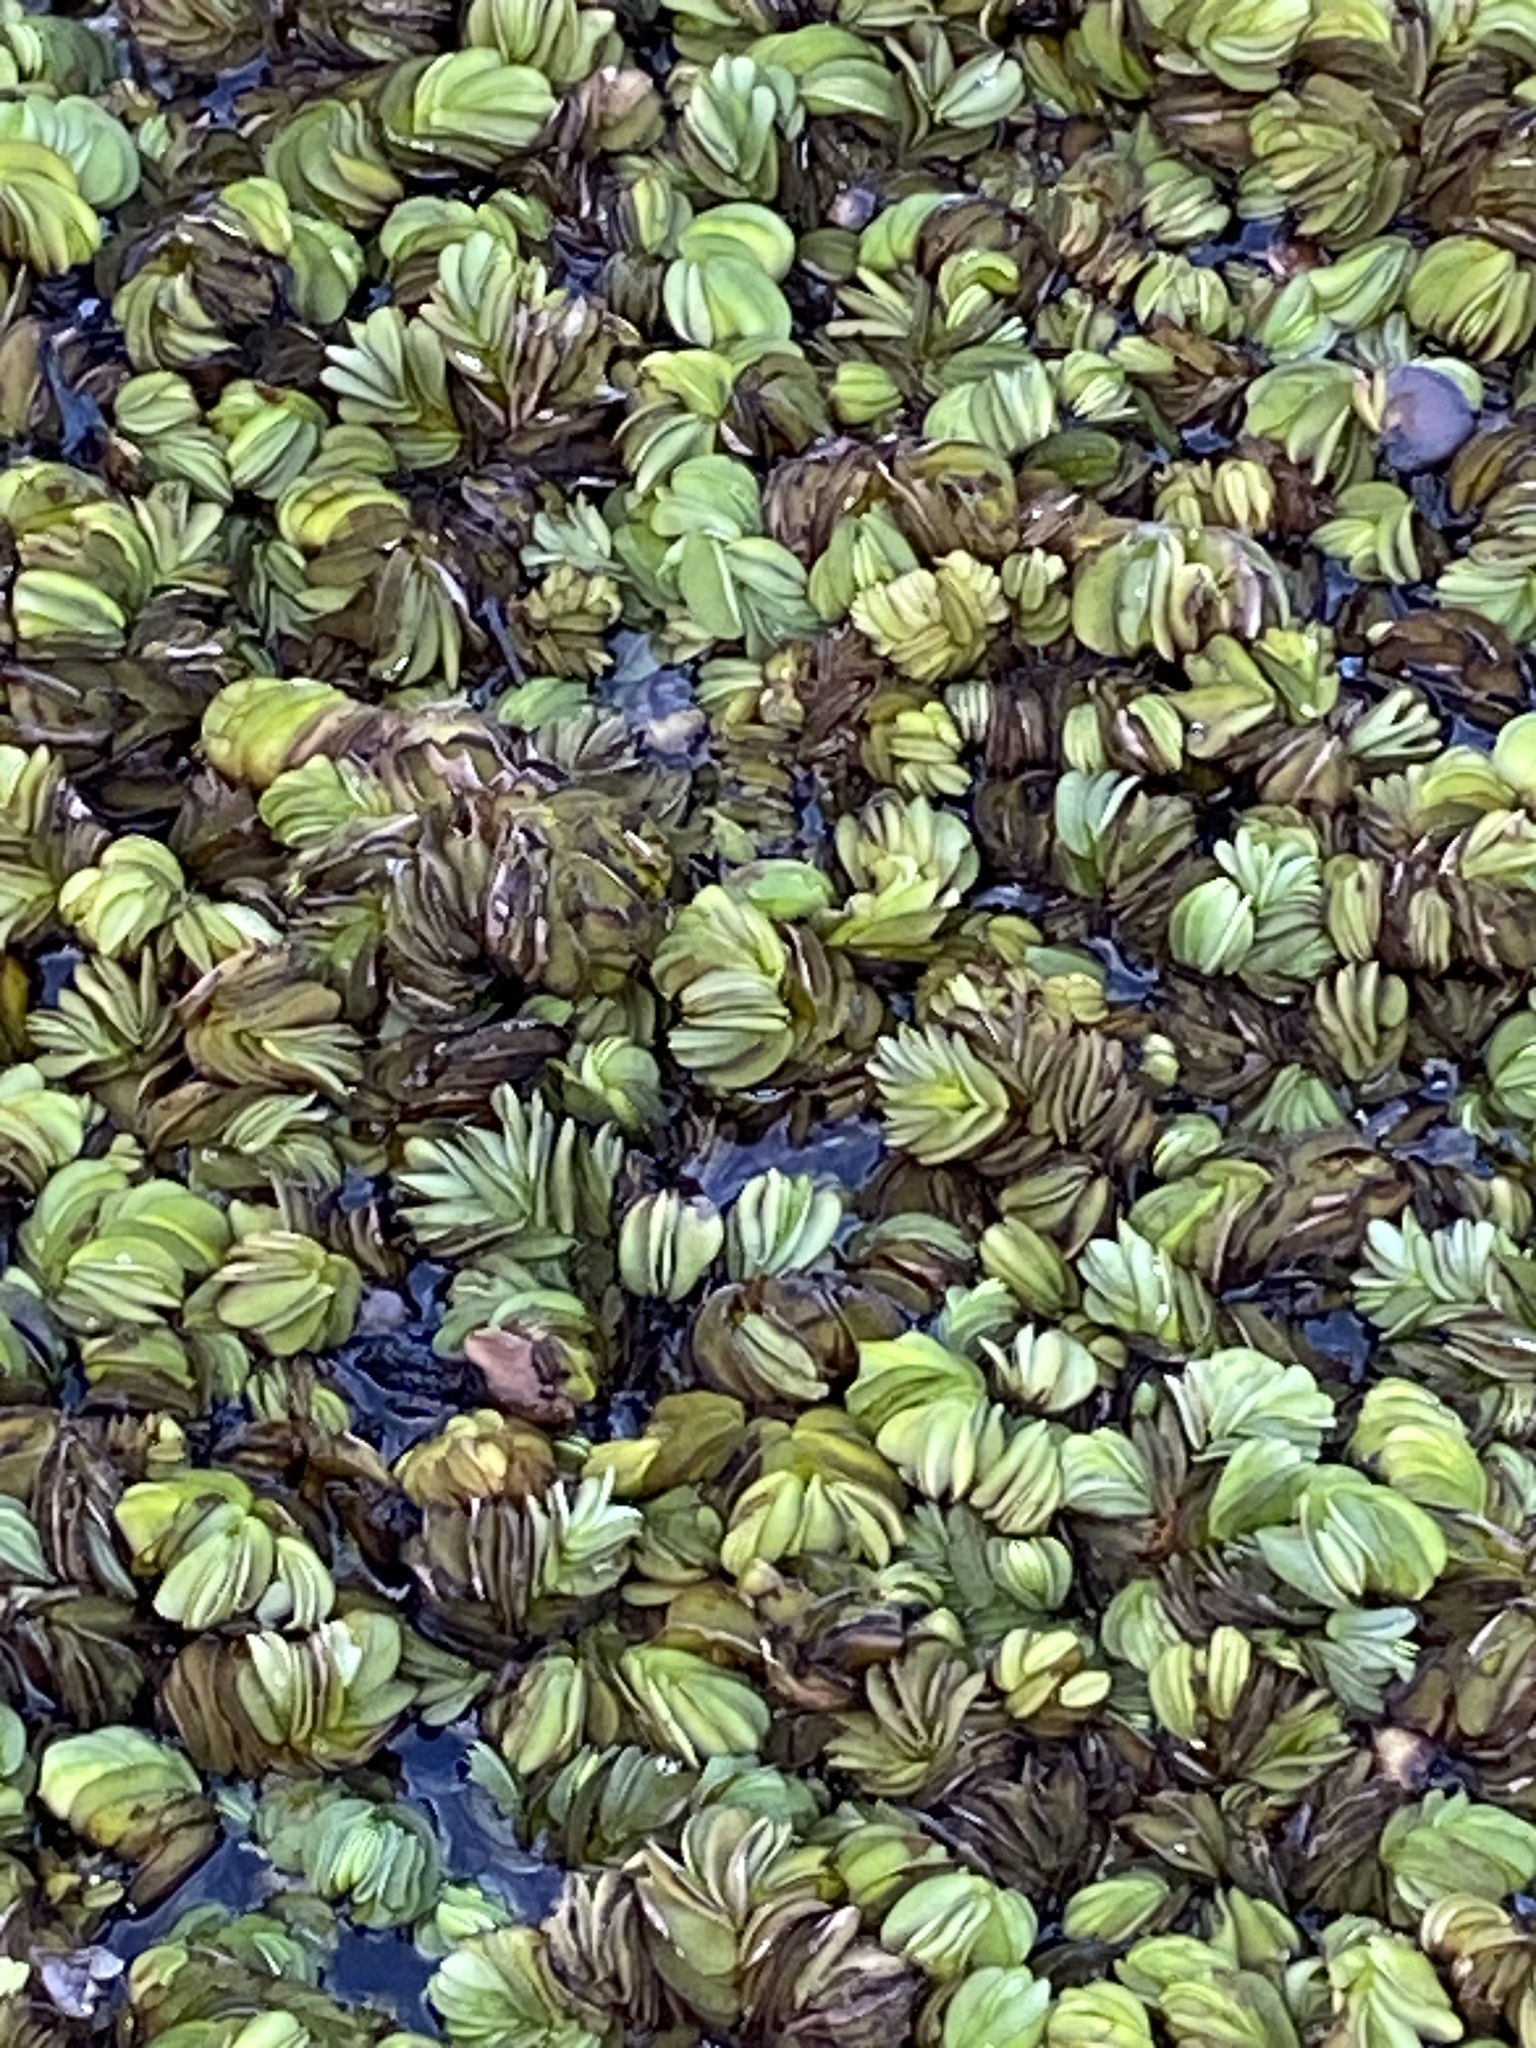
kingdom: Plantae
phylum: Tracheophyta
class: Polypodiopsida
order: Salviniales
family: Salviniaceae
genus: Salvinia
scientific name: Salvinia molesta
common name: Kariba weed
